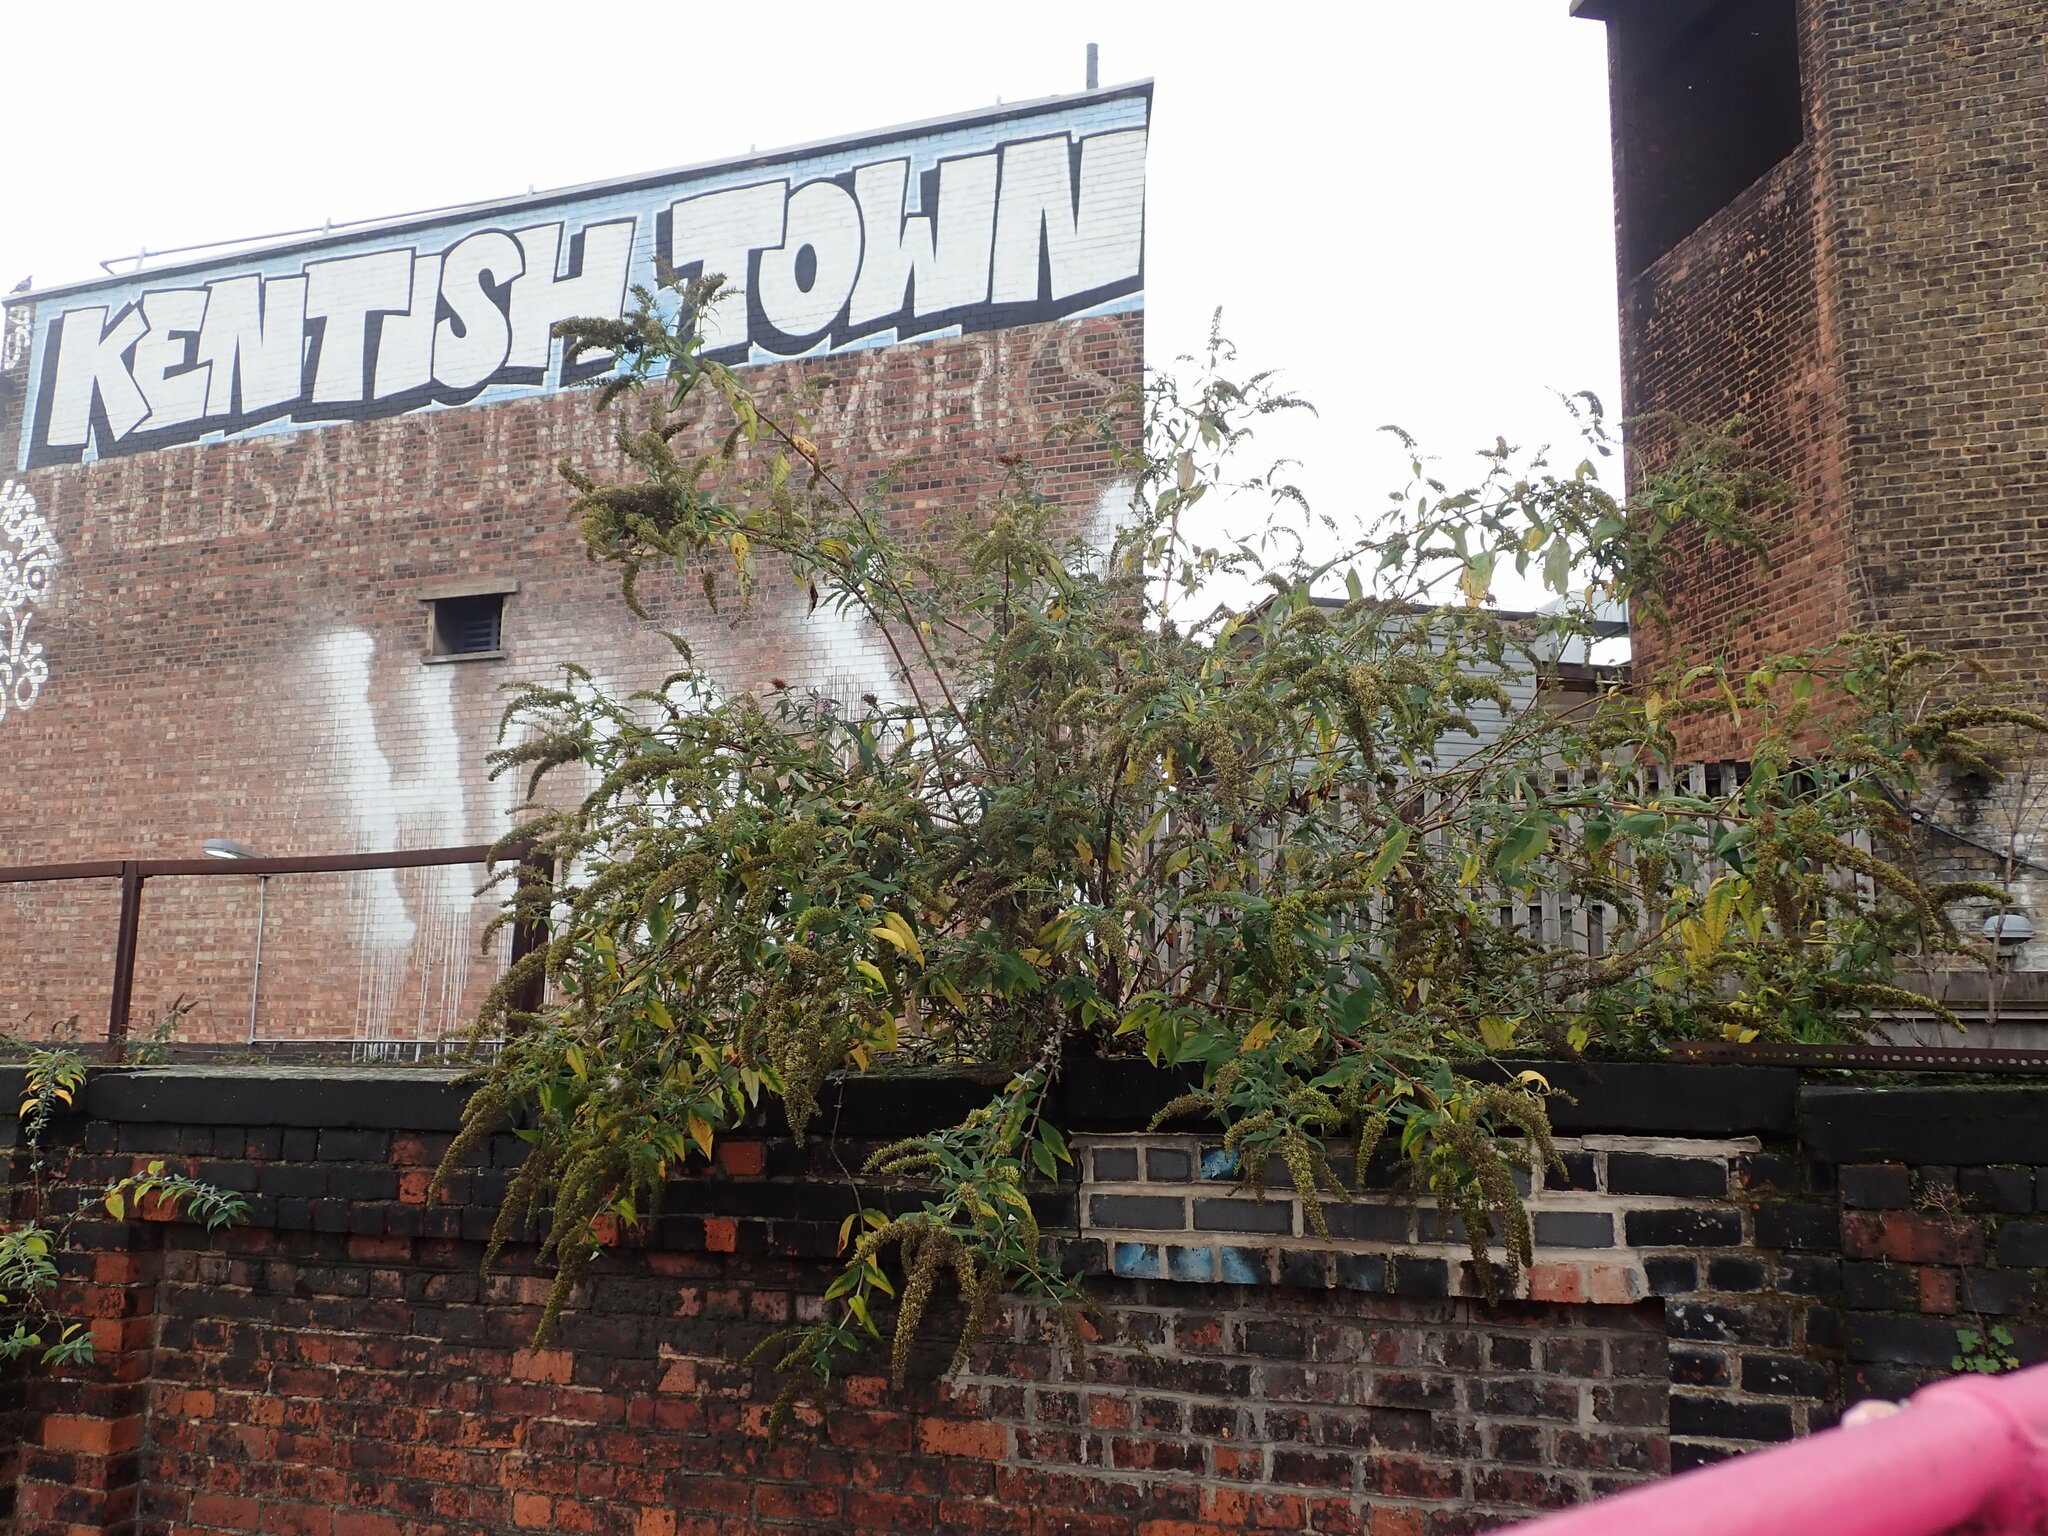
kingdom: Plantae
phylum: Tracheophyta
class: Magnoliopsida
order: Lamiales
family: Scrophulariaceae
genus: Buddleja
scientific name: Buddleja davidii
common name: Butterfly-bush
